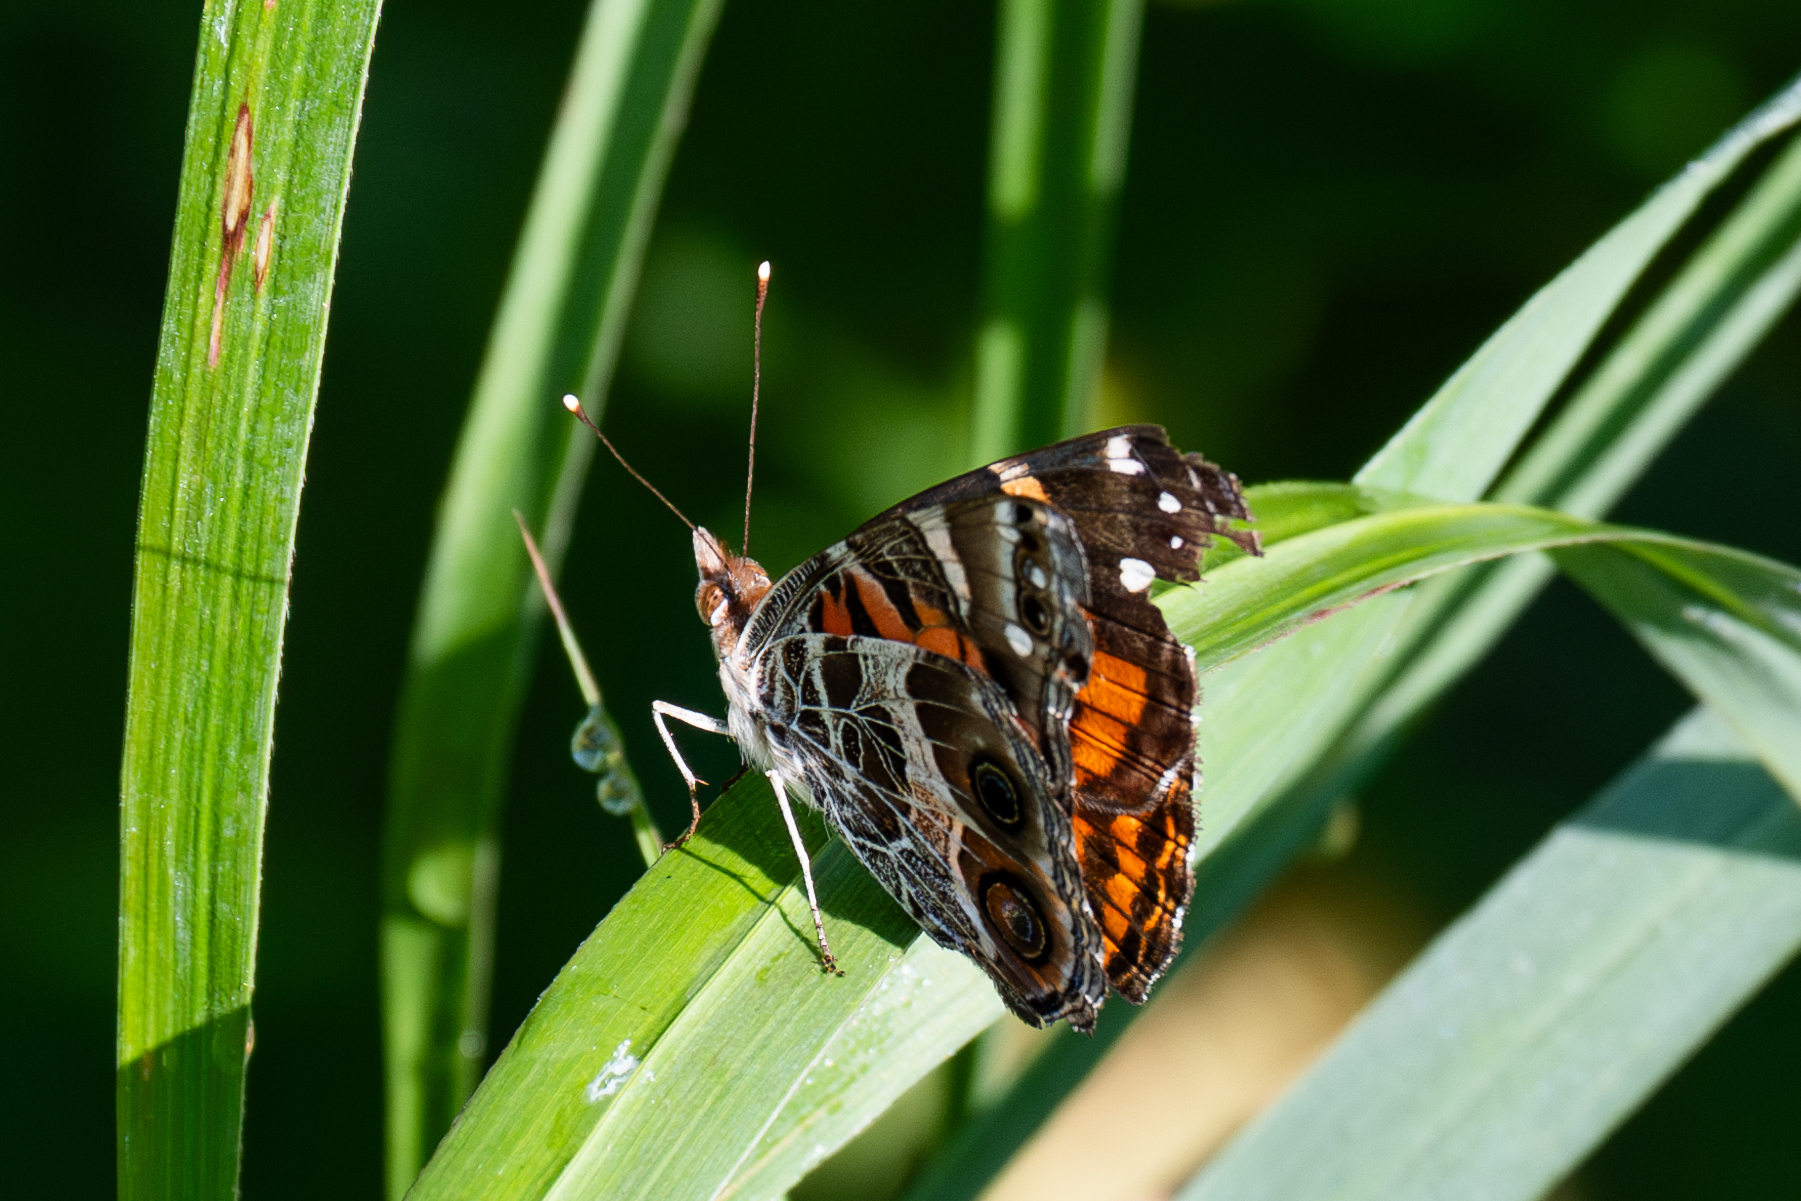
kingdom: Animalia
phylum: Arthropoda
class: Insecta
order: Lepidoptera
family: Nymphalidae
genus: Vanessa
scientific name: Vanessa virginiensis
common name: American lady
